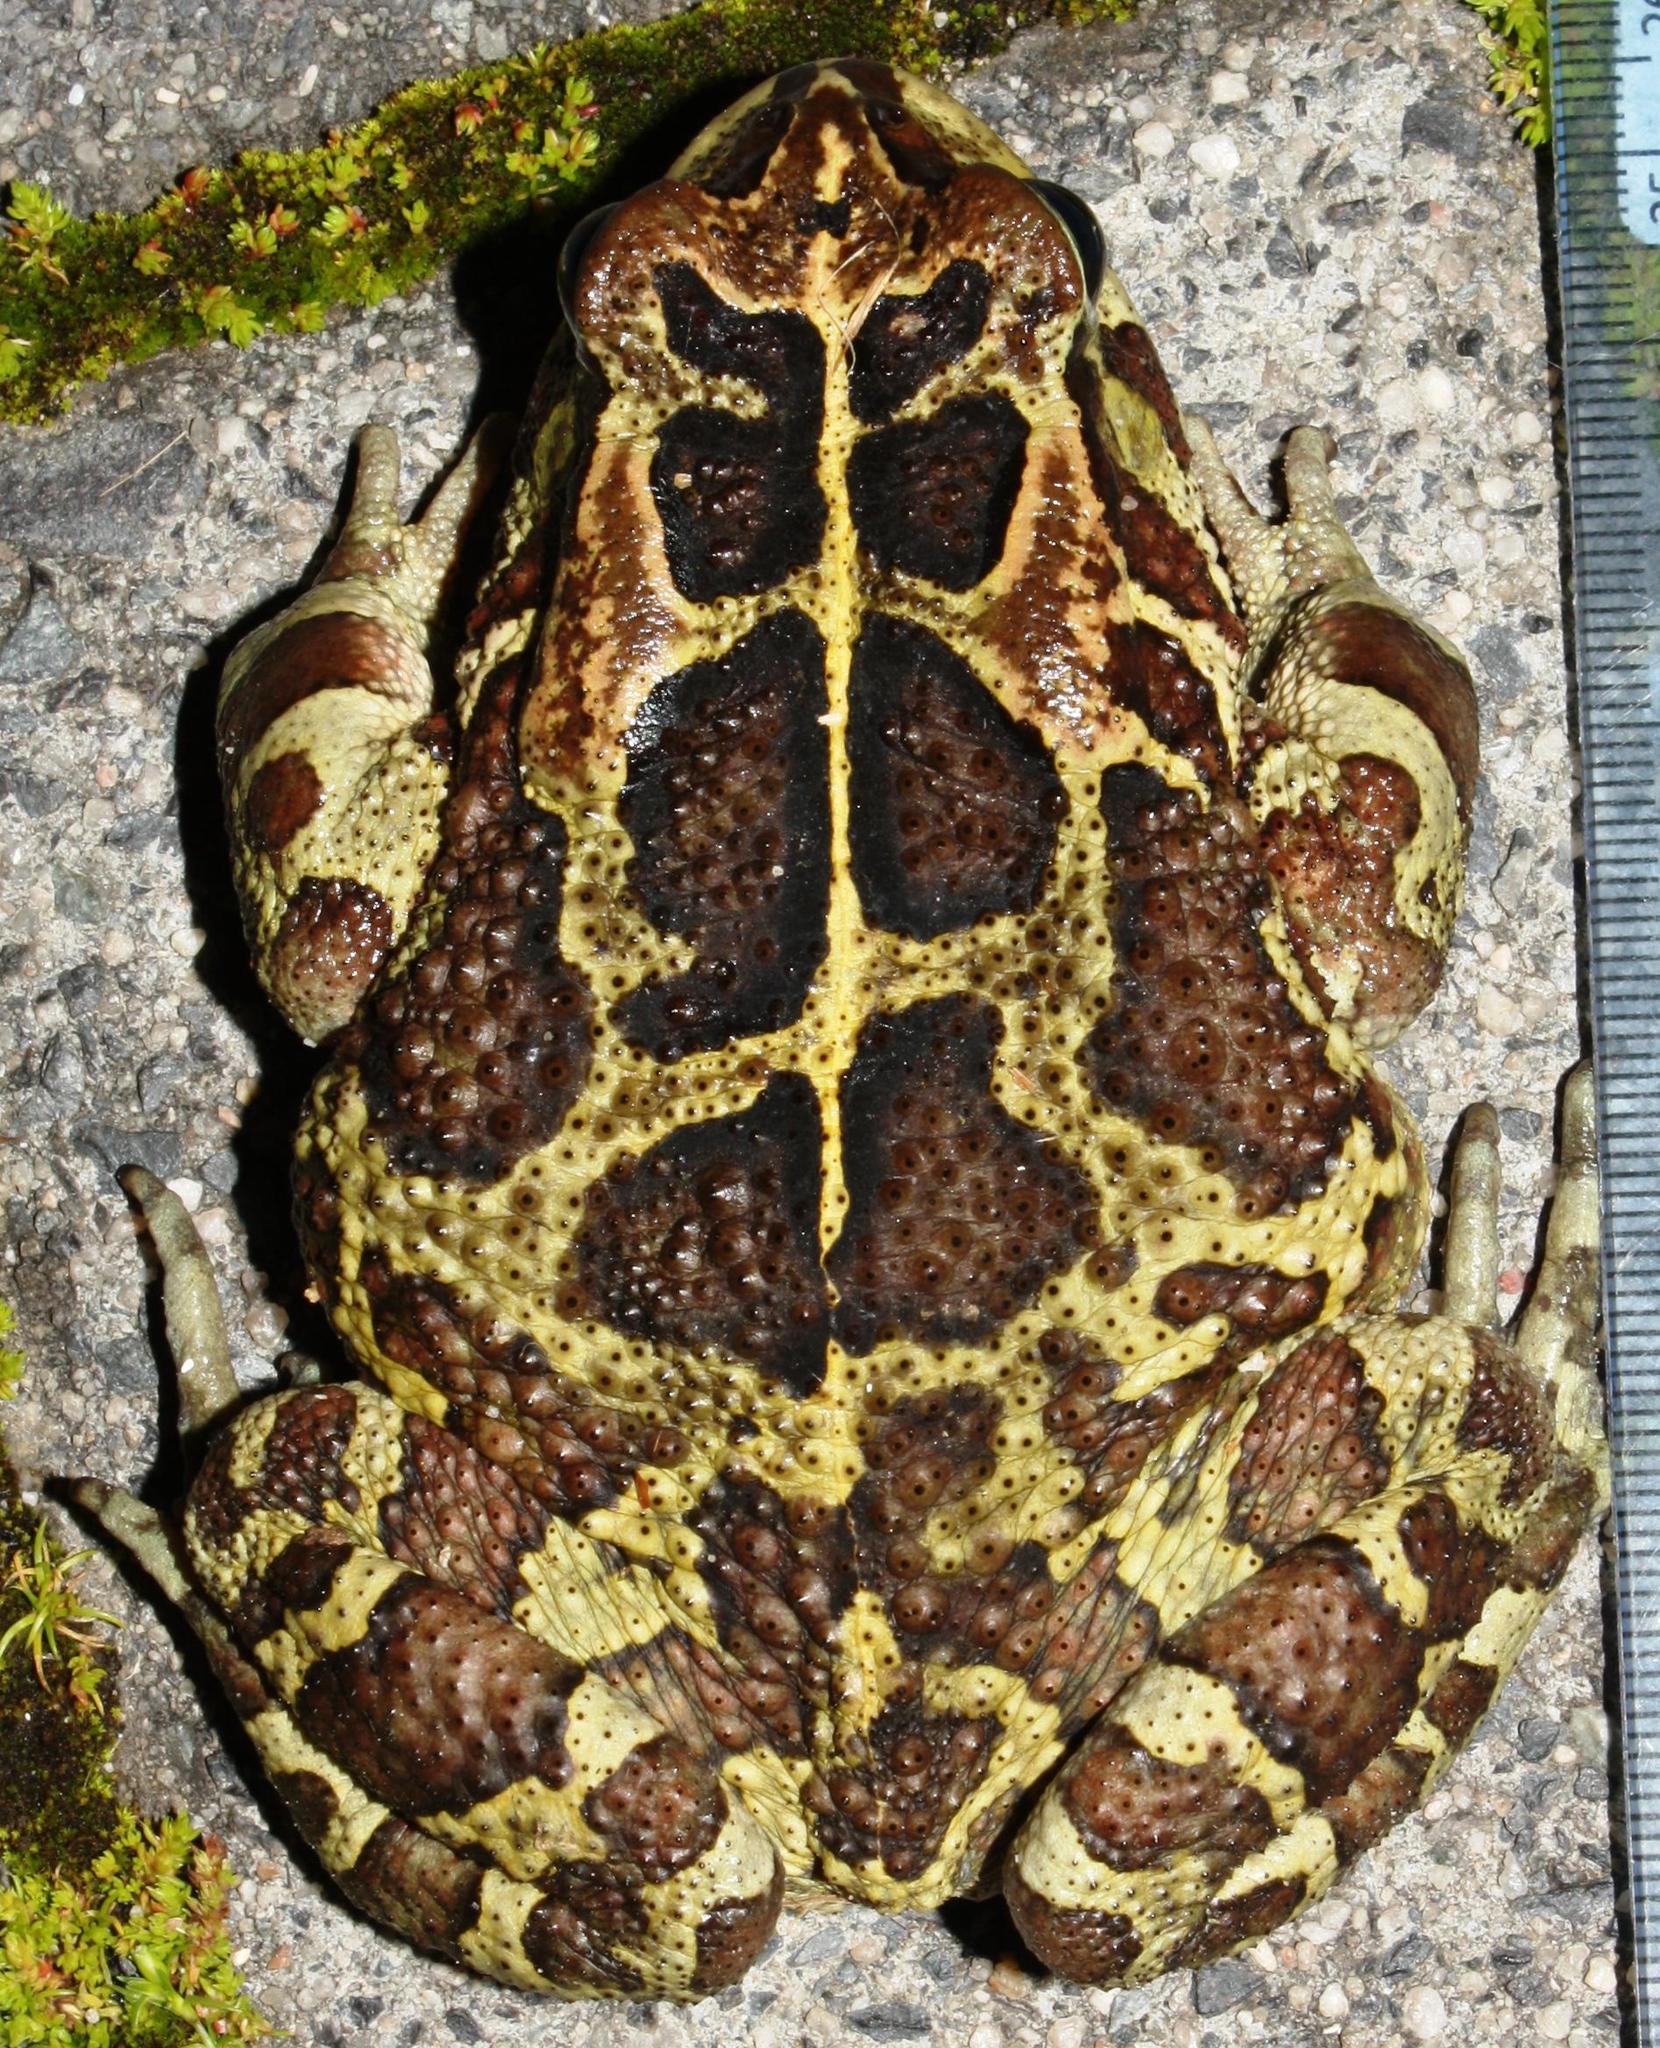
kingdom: Animalia
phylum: Chordata
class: Amphibia
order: Anura
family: Bufonidae
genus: Sclerophrys
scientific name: Sclerophrys pantherina
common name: Panther toad
